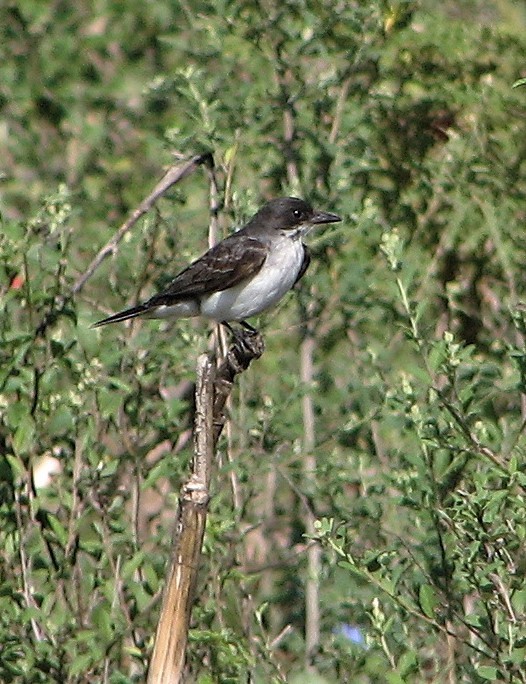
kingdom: Animalia
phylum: Chordata
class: Aves
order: Passeriformes
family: Tyrannidae
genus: Tyrannus
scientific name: Tyrannus tyrannus
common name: Eastern kingbird
